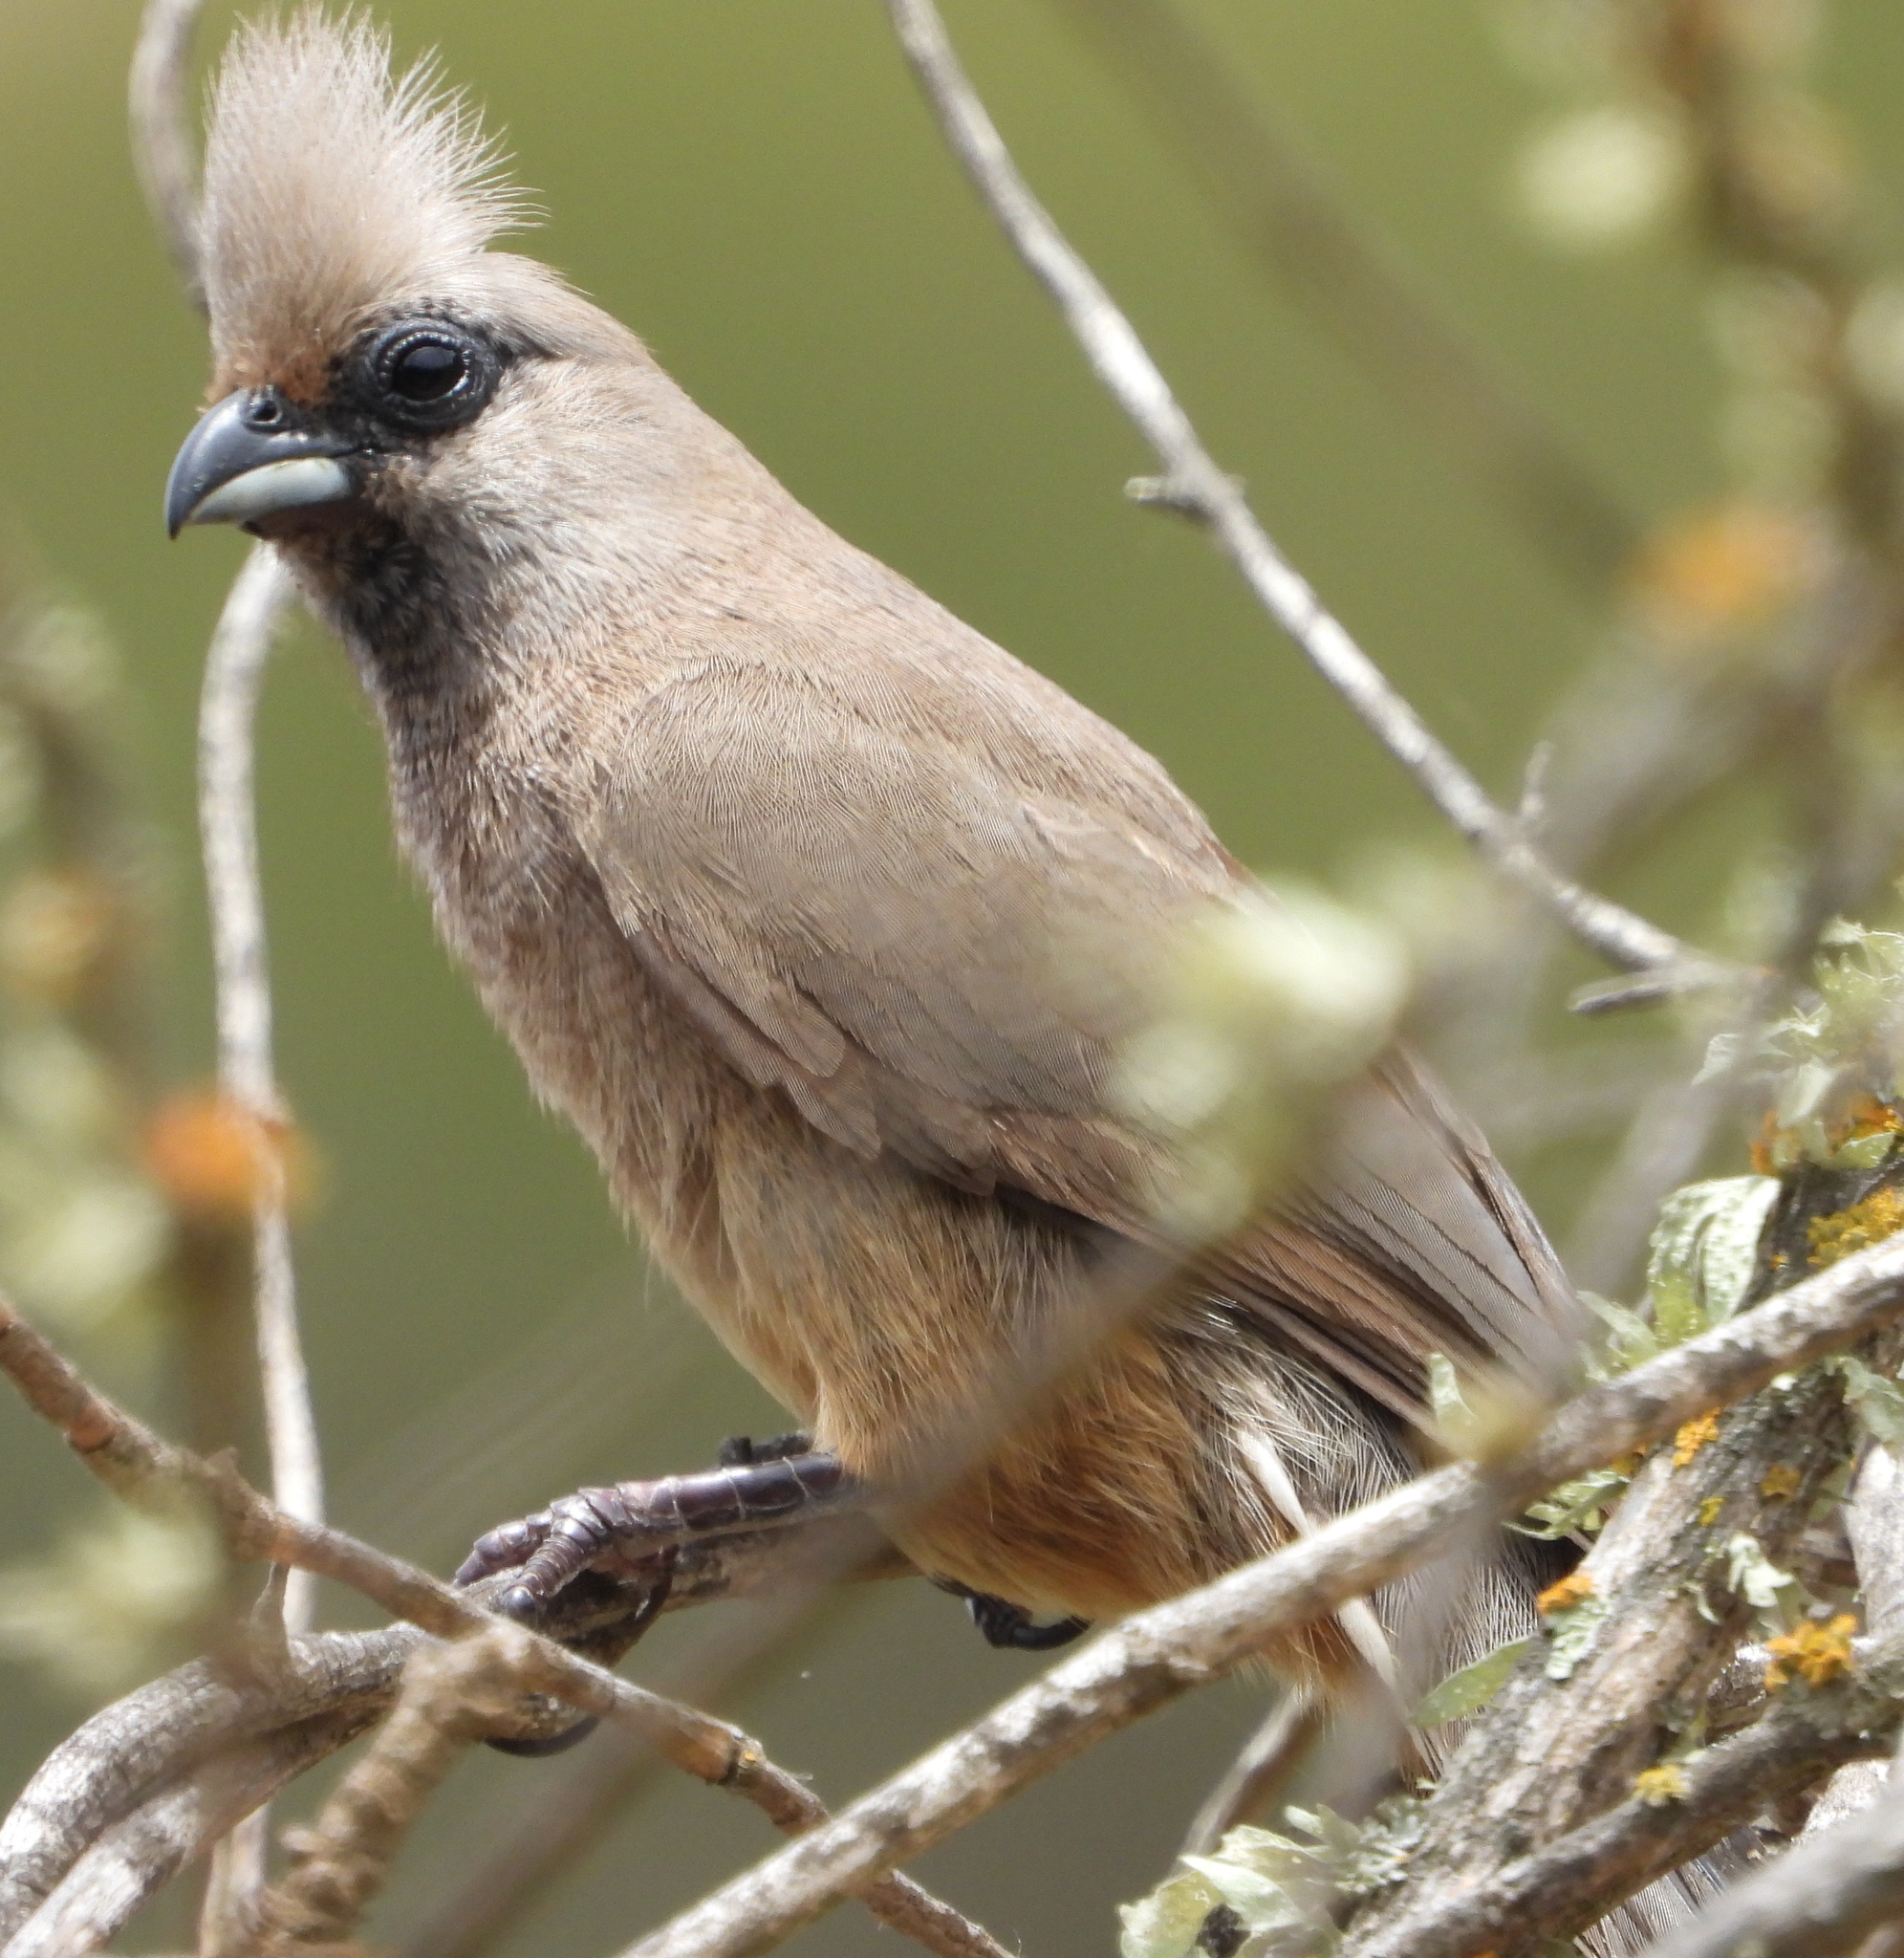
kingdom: Animalia
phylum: Chordata
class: Aves
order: Coliiformes
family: Coliidae
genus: Colius
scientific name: Colius striatus
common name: Speckled mousebird
